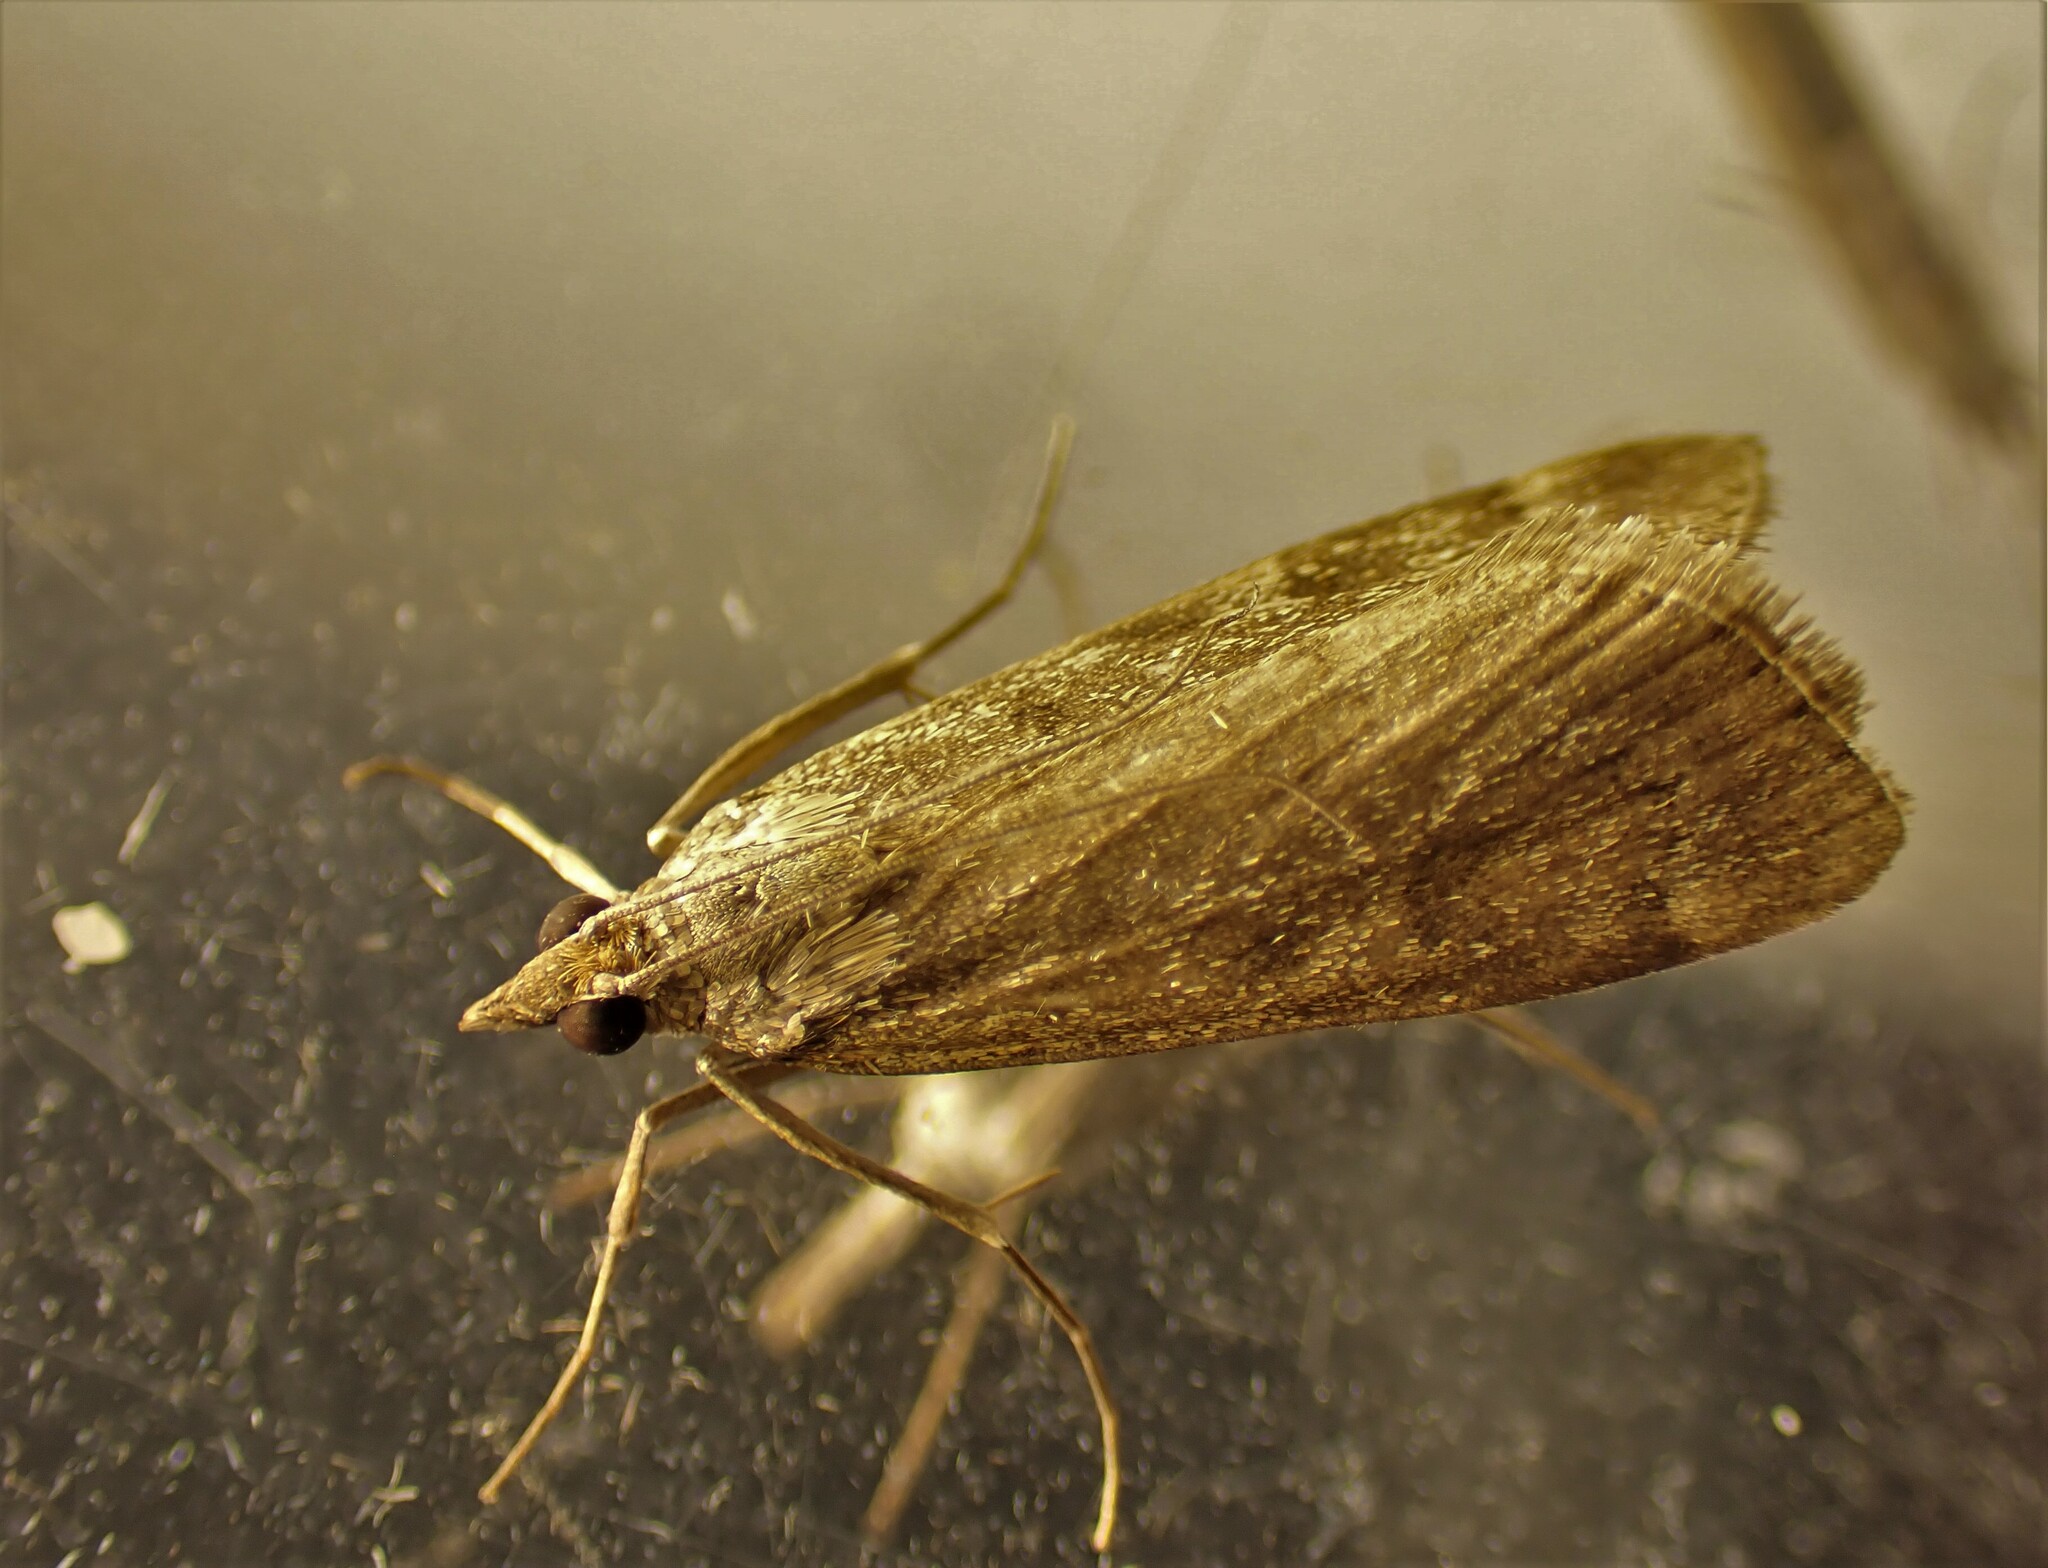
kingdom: Animalia
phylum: Arthropoda
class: Insecta
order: Lepidoptera
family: Crambidae
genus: Achyra
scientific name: Achyra affinitalis
